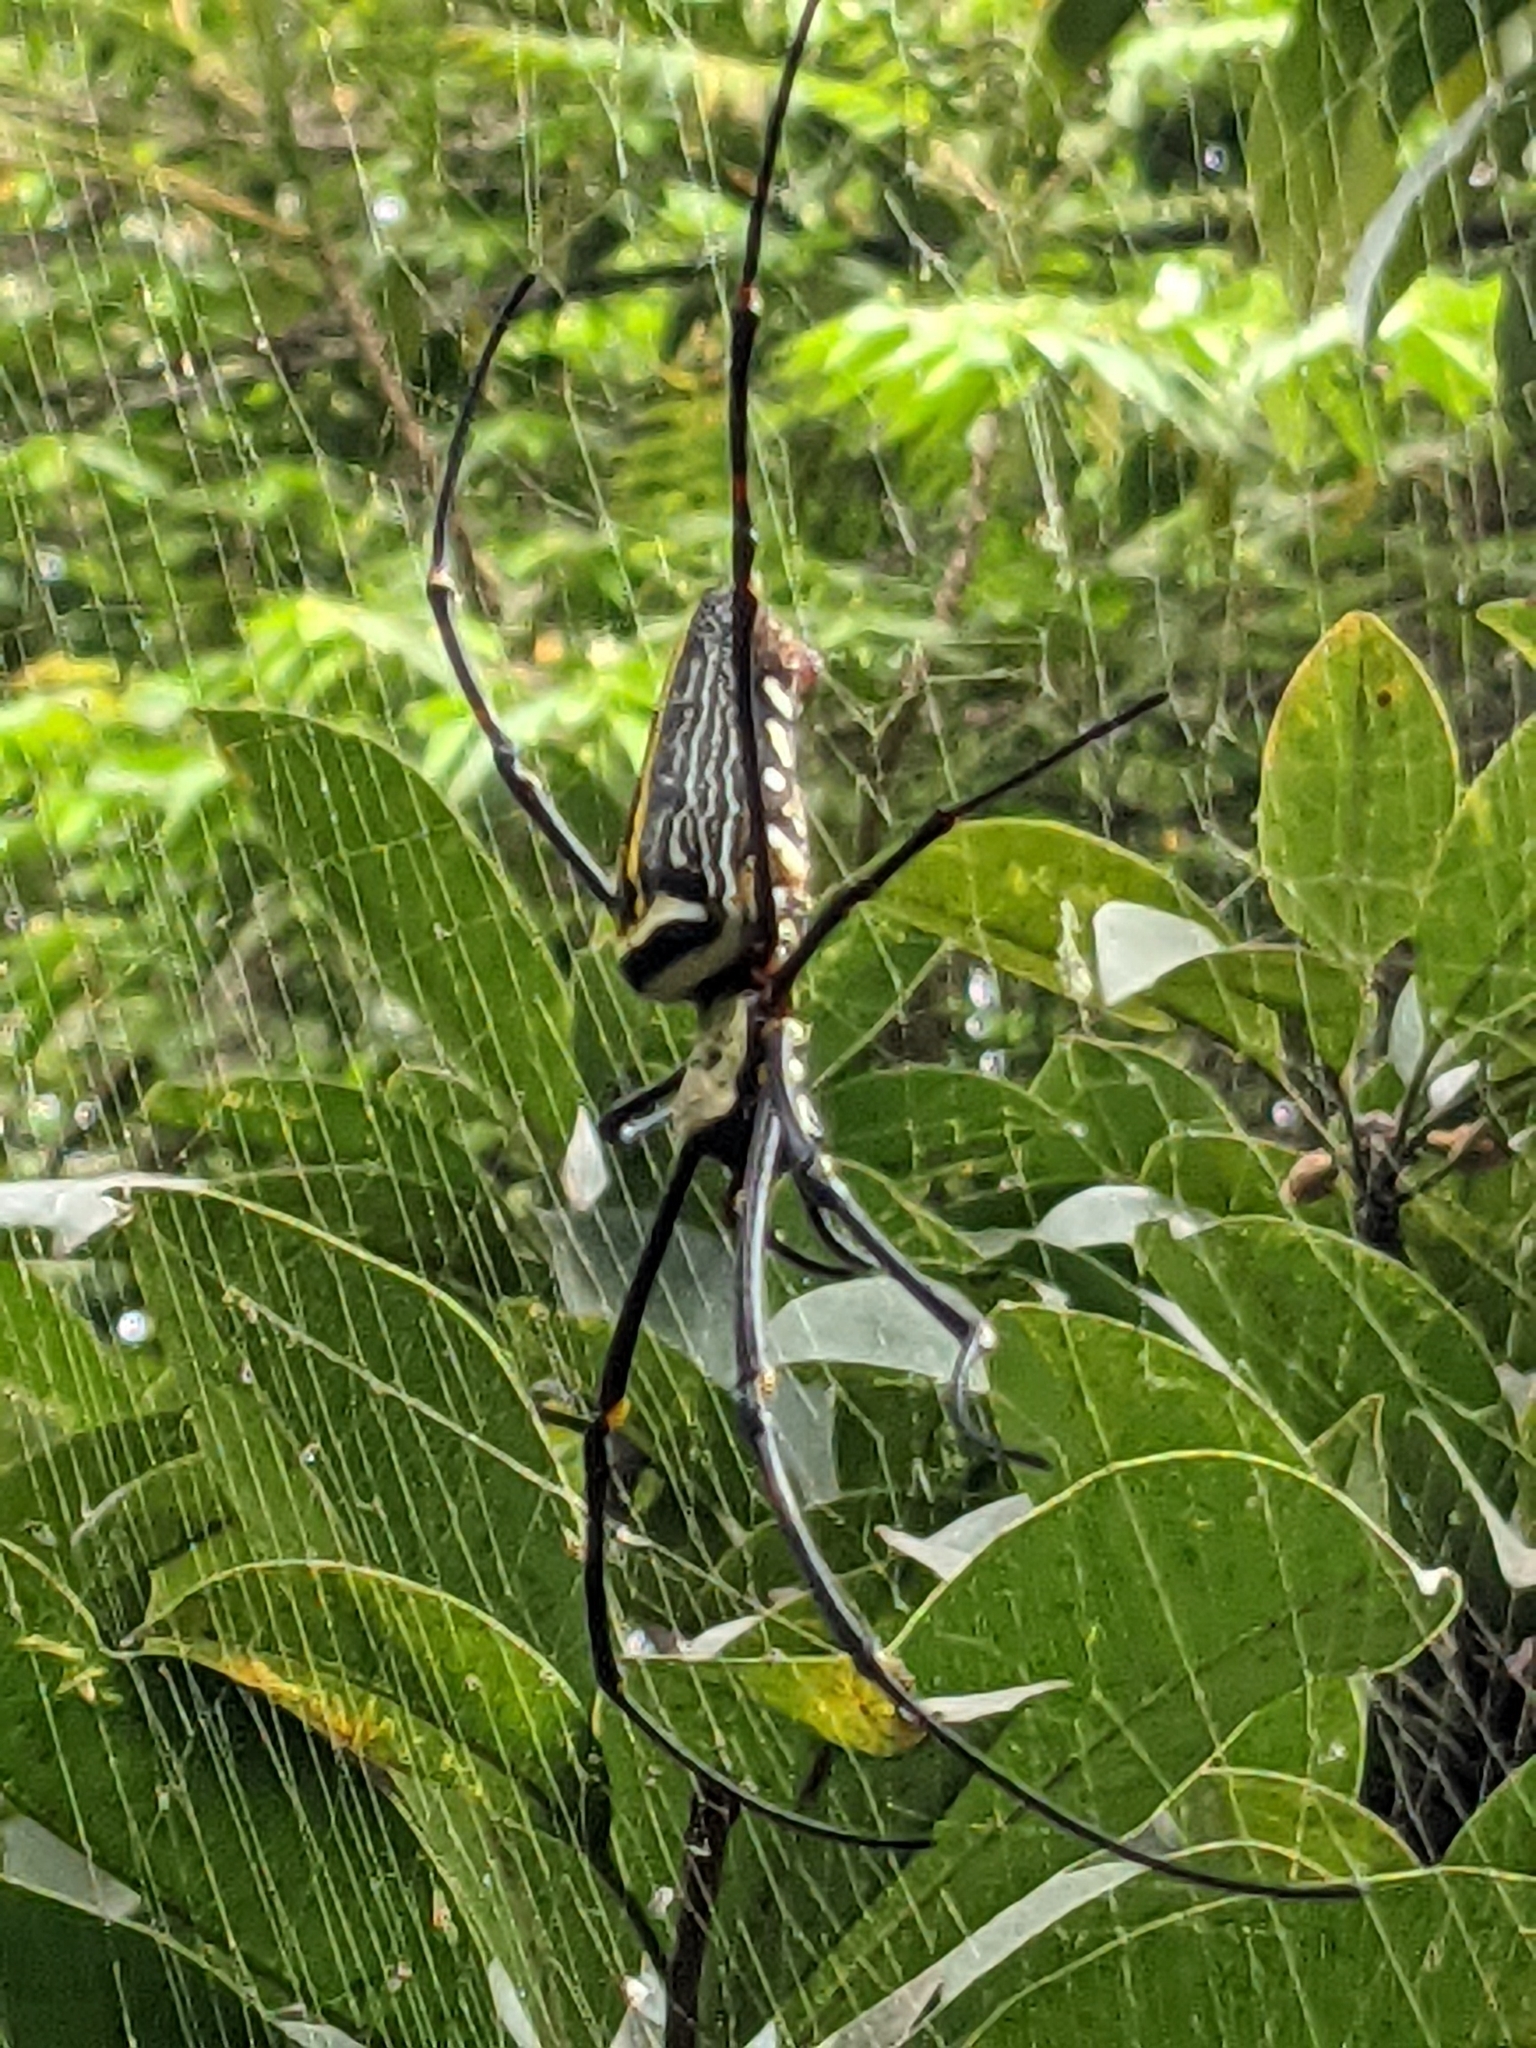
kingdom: Animalia
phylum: Arthropoda
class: Arachnida
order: Araneae
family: Araneidae
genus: Nephila
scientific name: Nephila pilipes
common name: Giant golden orb weaver
